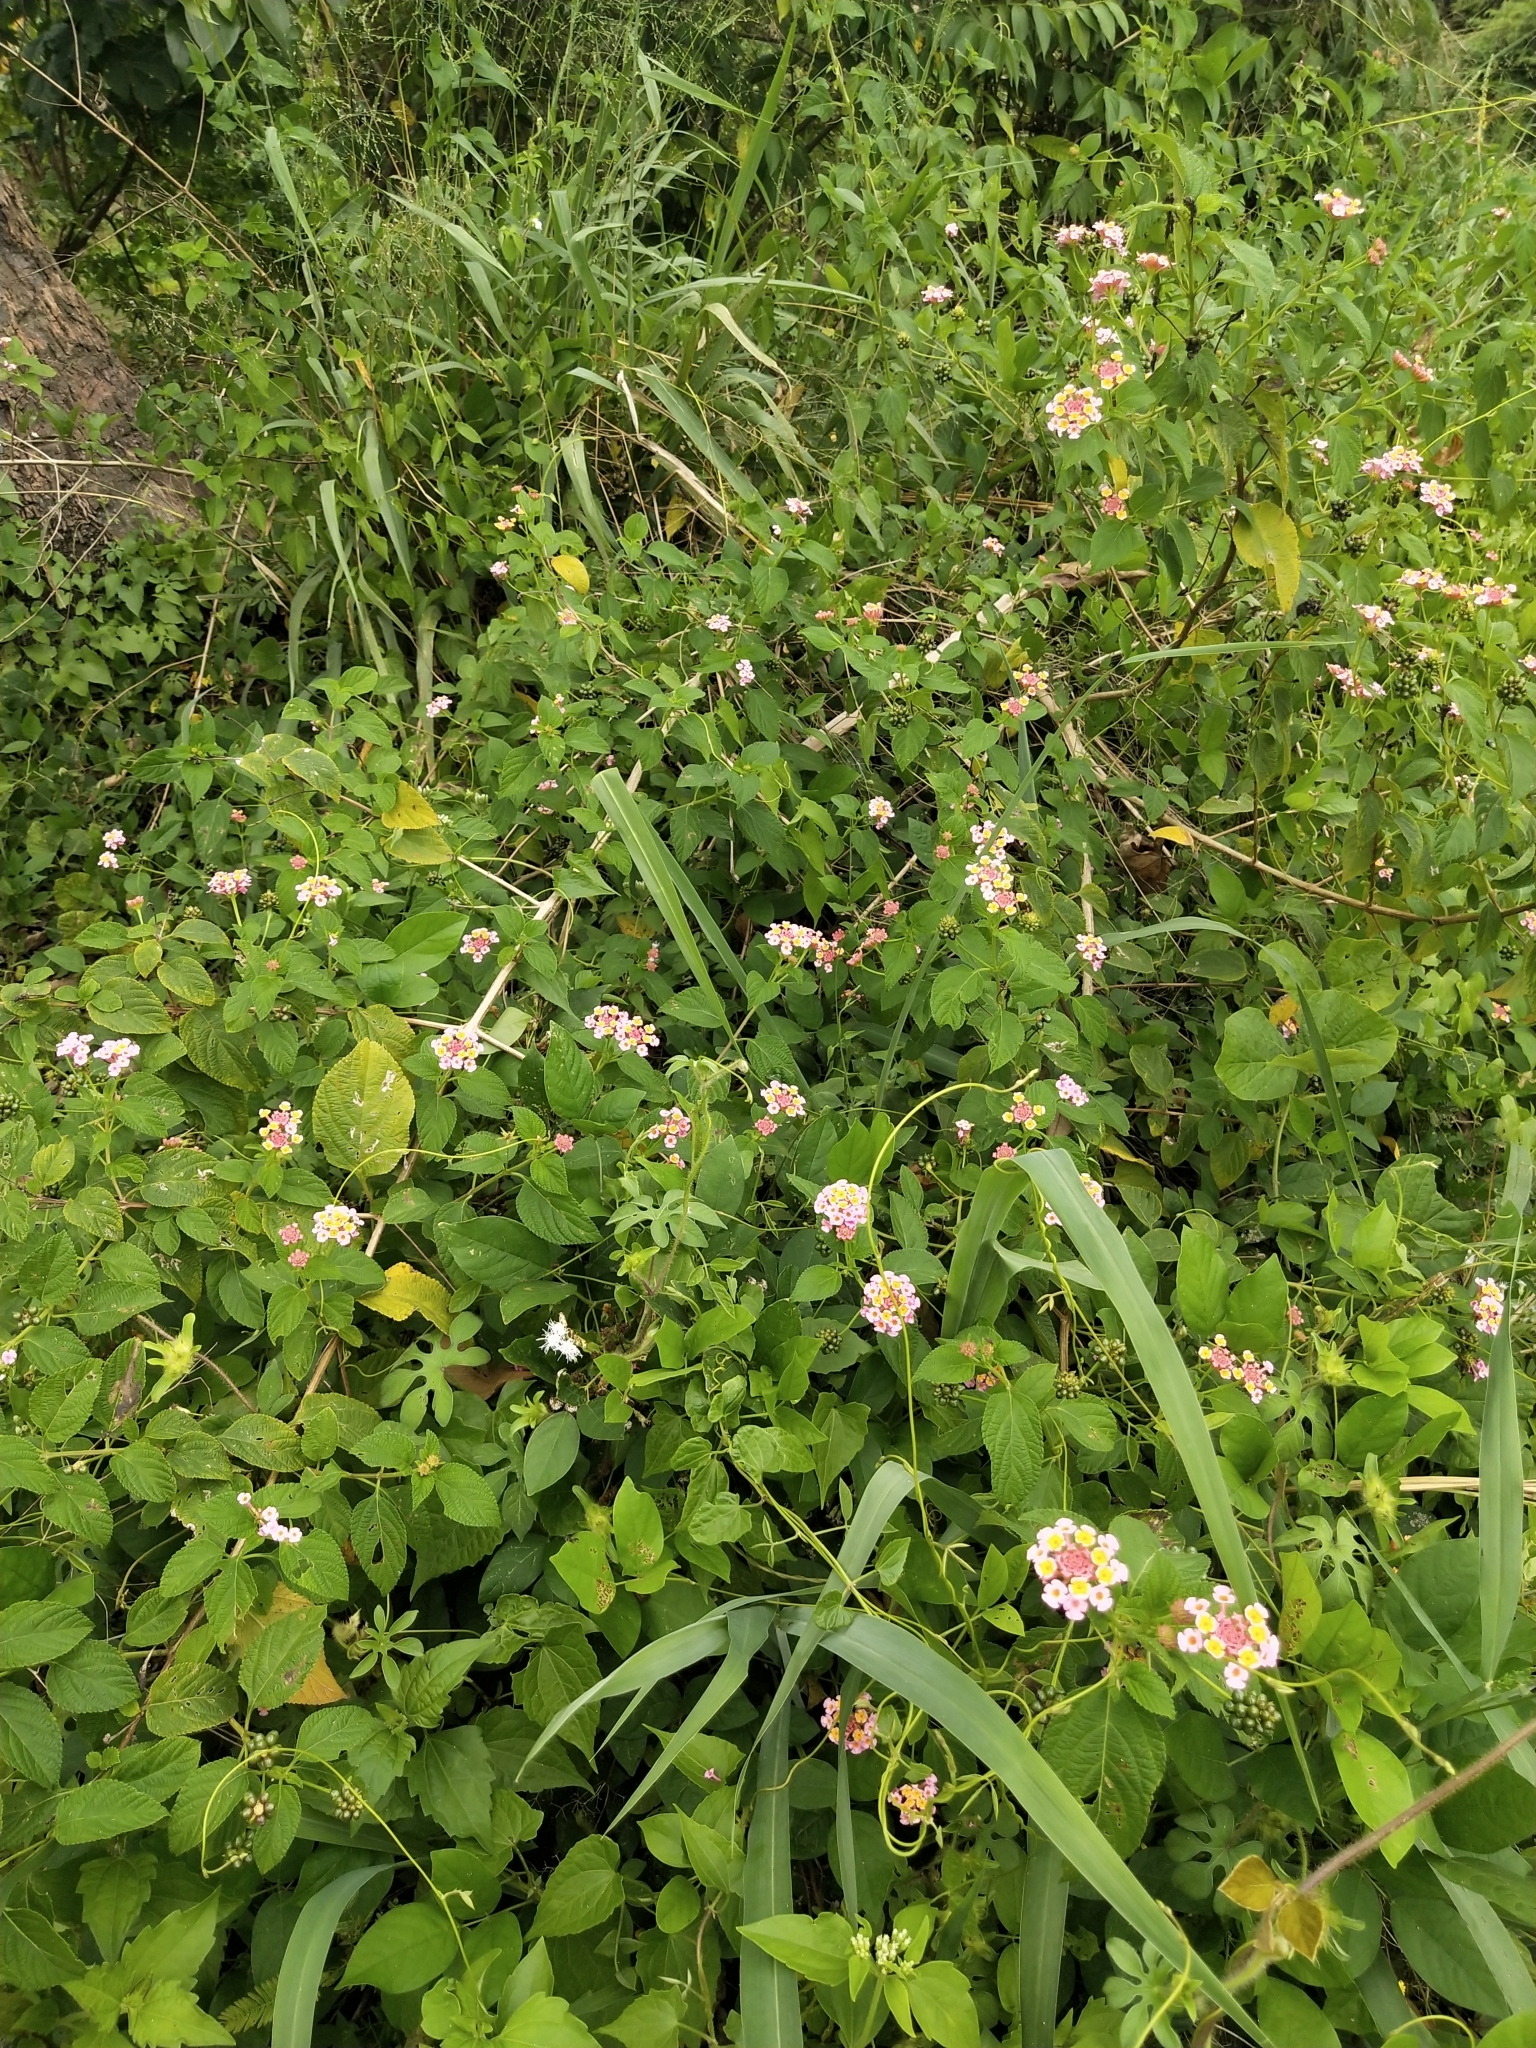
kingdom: Plantae
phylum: Tracheophyta
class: Magnoliopsida
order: Lamiales
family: Verbenaceae
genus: Lantana
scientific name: Lantana camara
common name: Lantana
